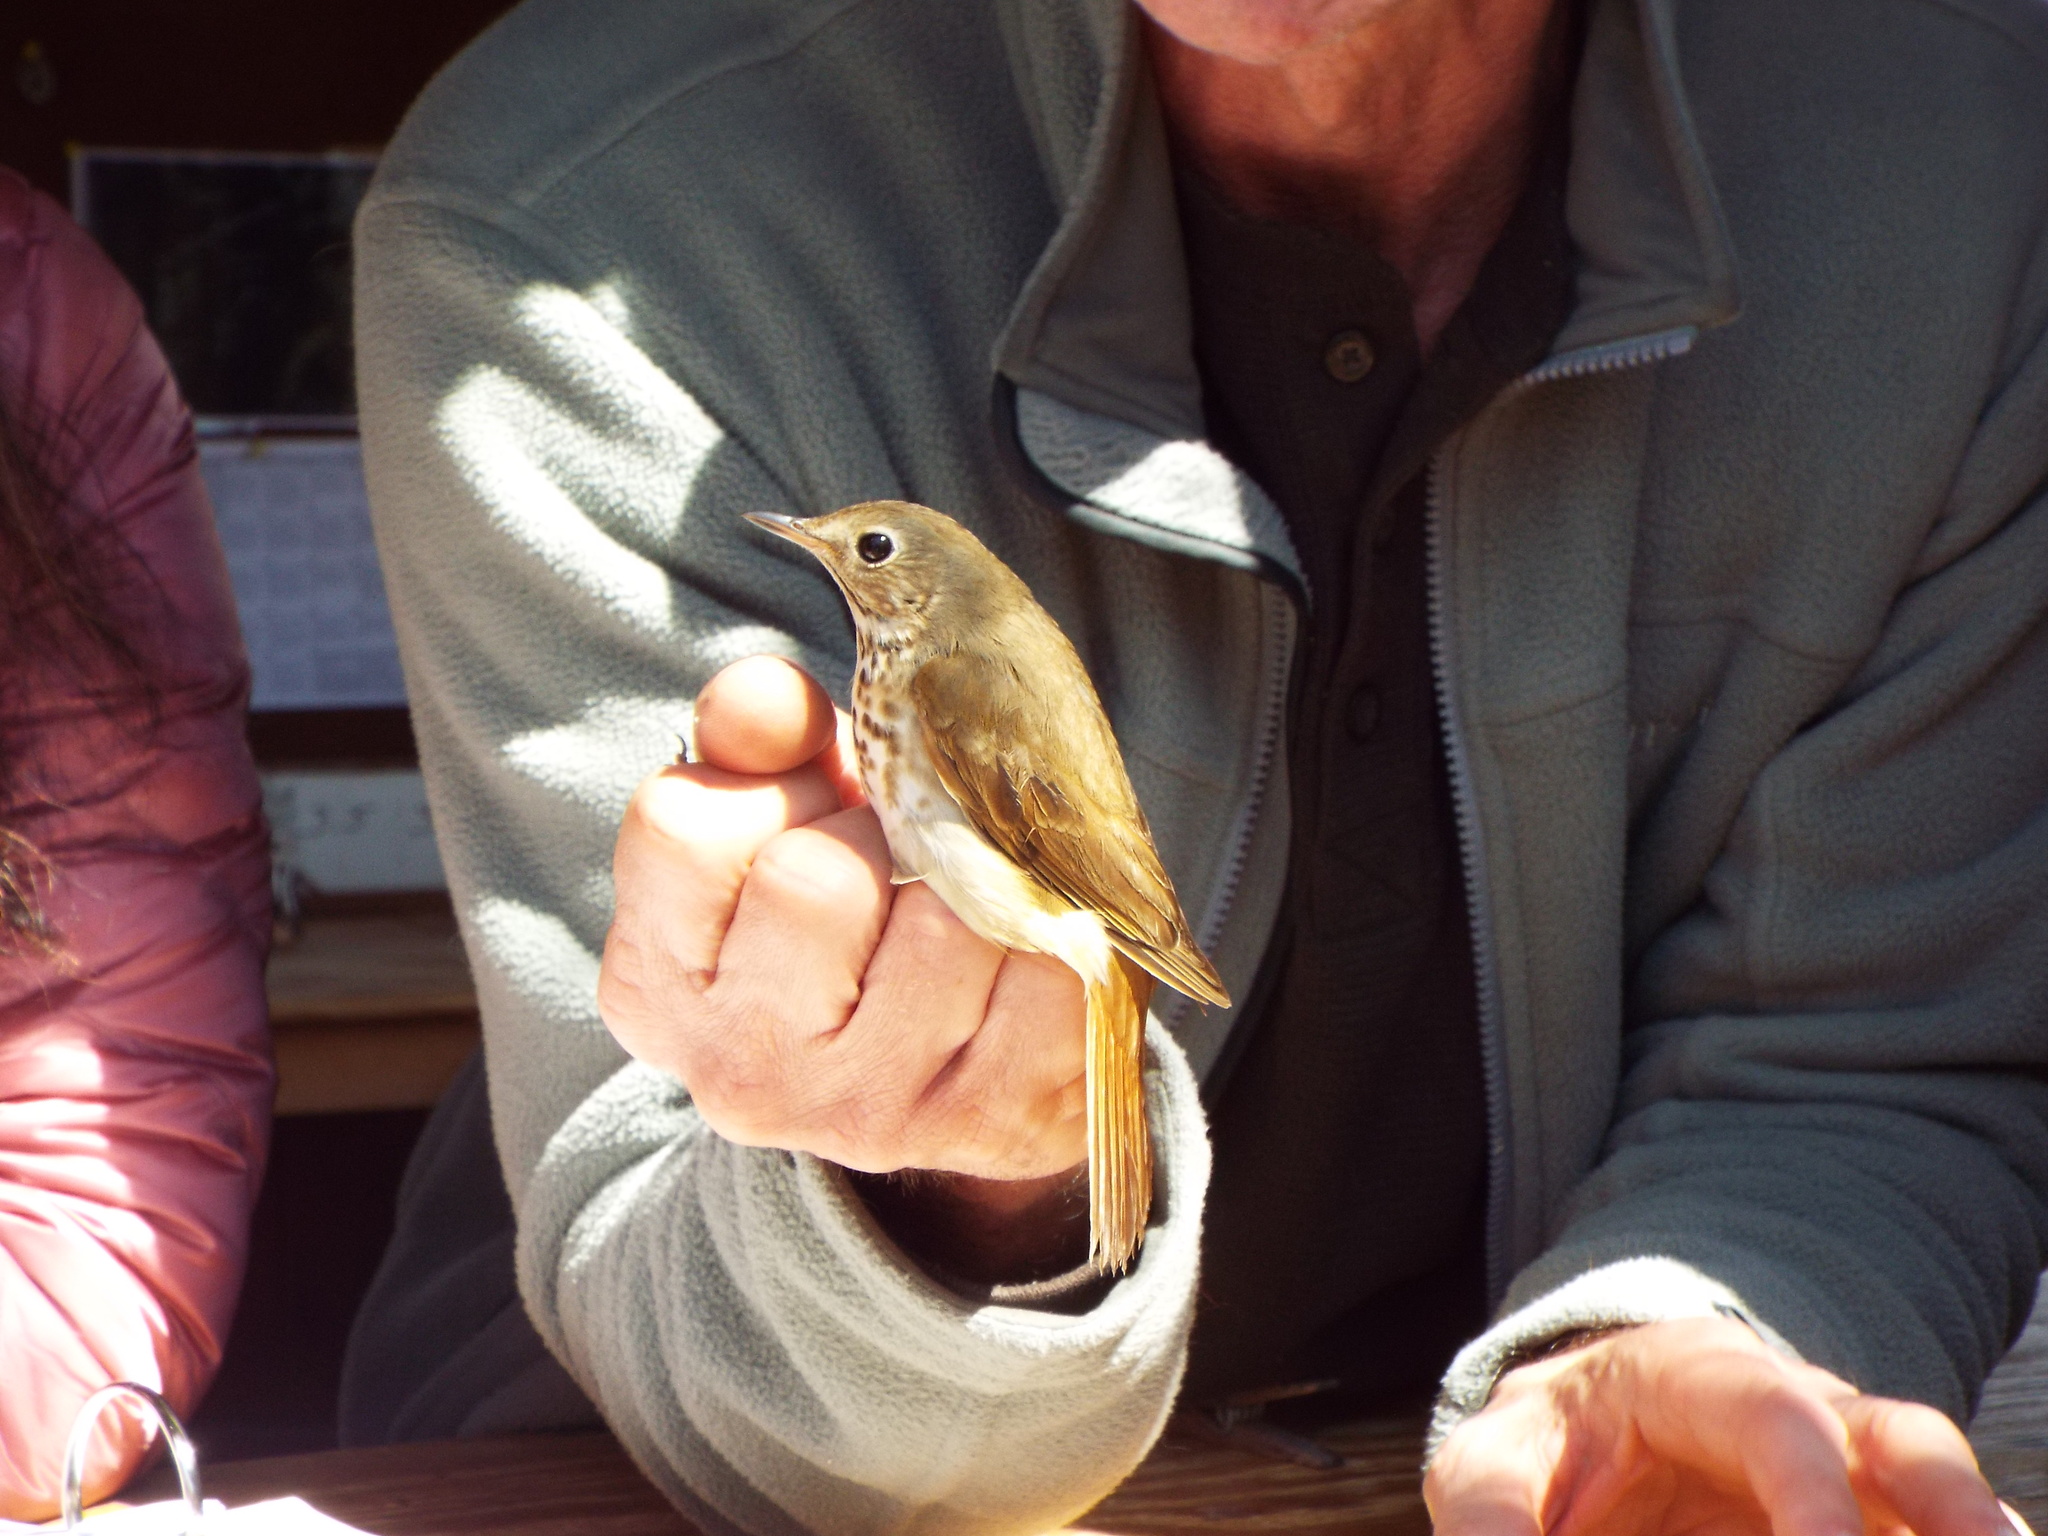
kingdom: Animalia
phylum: Chordata
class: Aves
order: Passeriformes
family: Turdidae
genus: Catharus
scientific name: Catharus guttatus
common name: Hermit thrush
